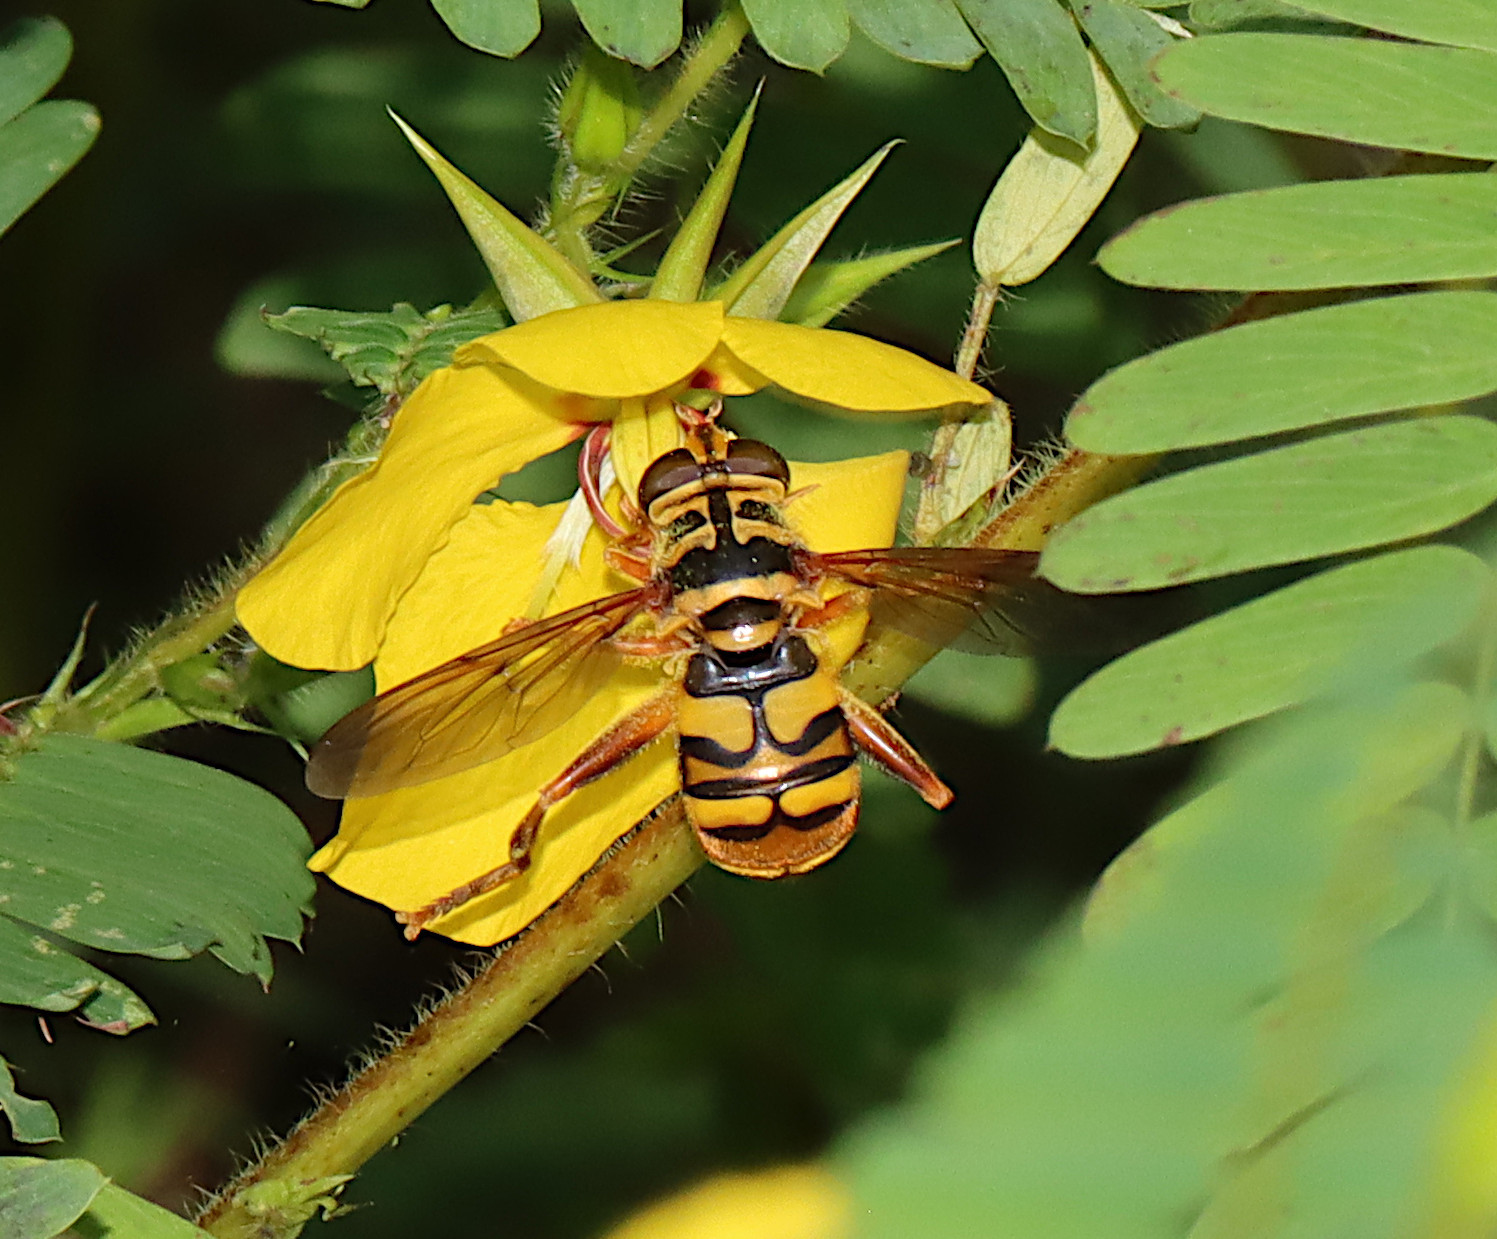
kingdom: Animalia
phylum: Arthropoda
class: Insecta
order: Diptera
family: Syrphidae
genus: Milesia
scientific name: Milesia virginiensis
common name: Virginia giant
